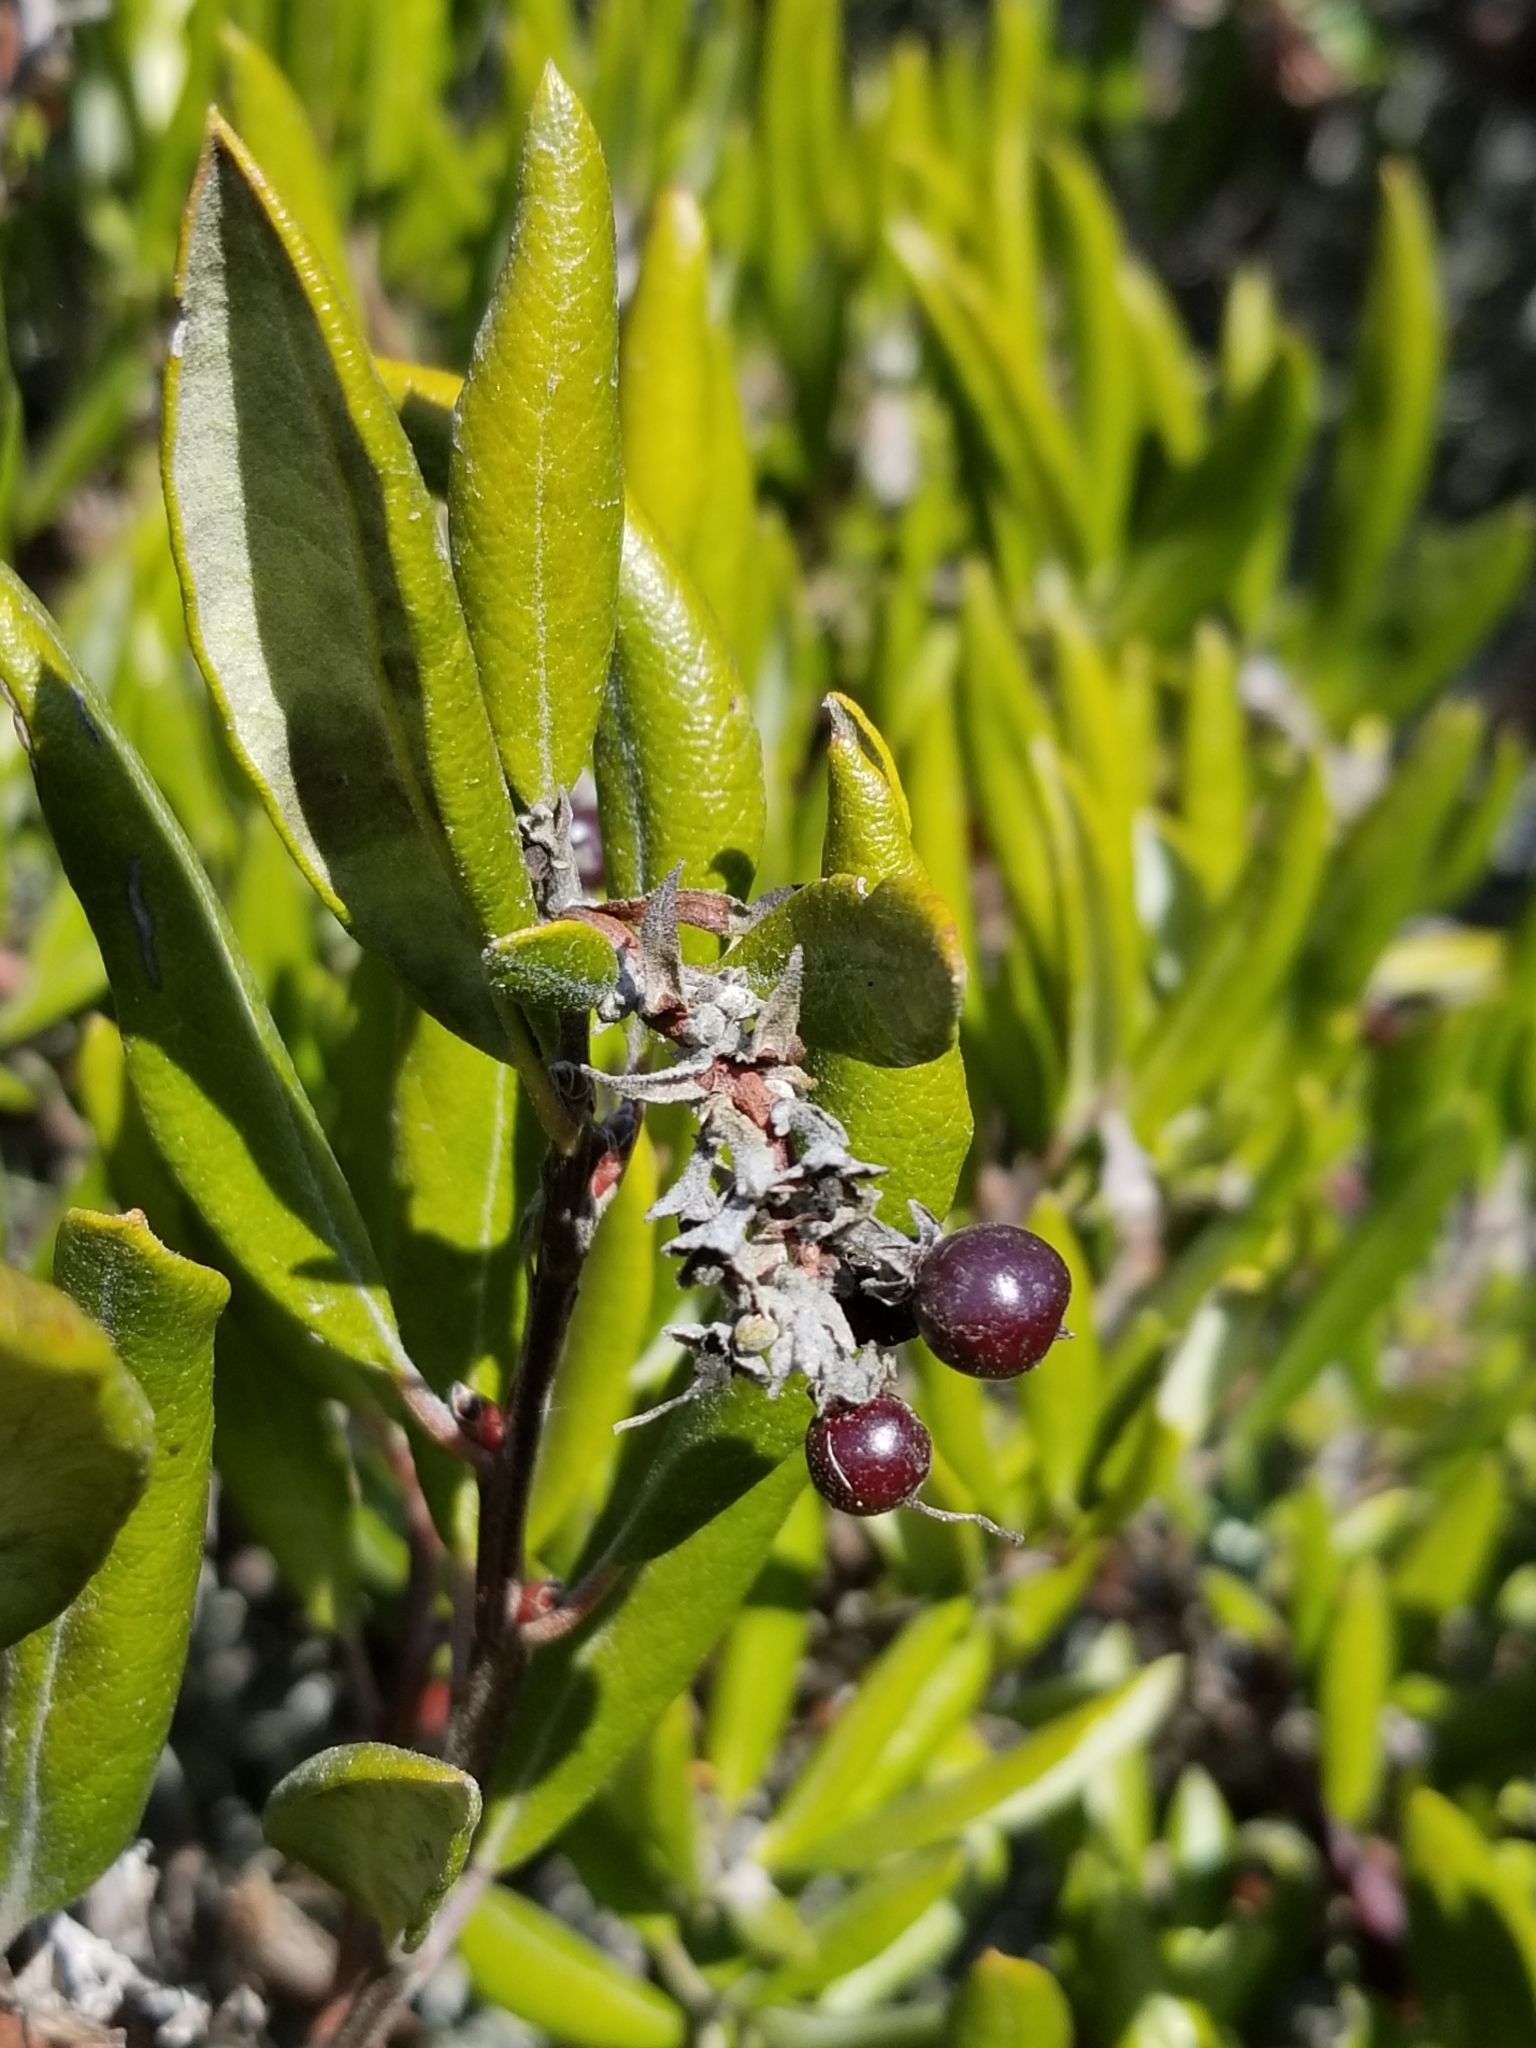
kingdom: Plantae
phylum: Tracheophyta
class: Magnoliopsida
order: Ericales
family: Ericaceae
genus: Arctostaphylos
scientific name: Arctostaphylos bicolor
